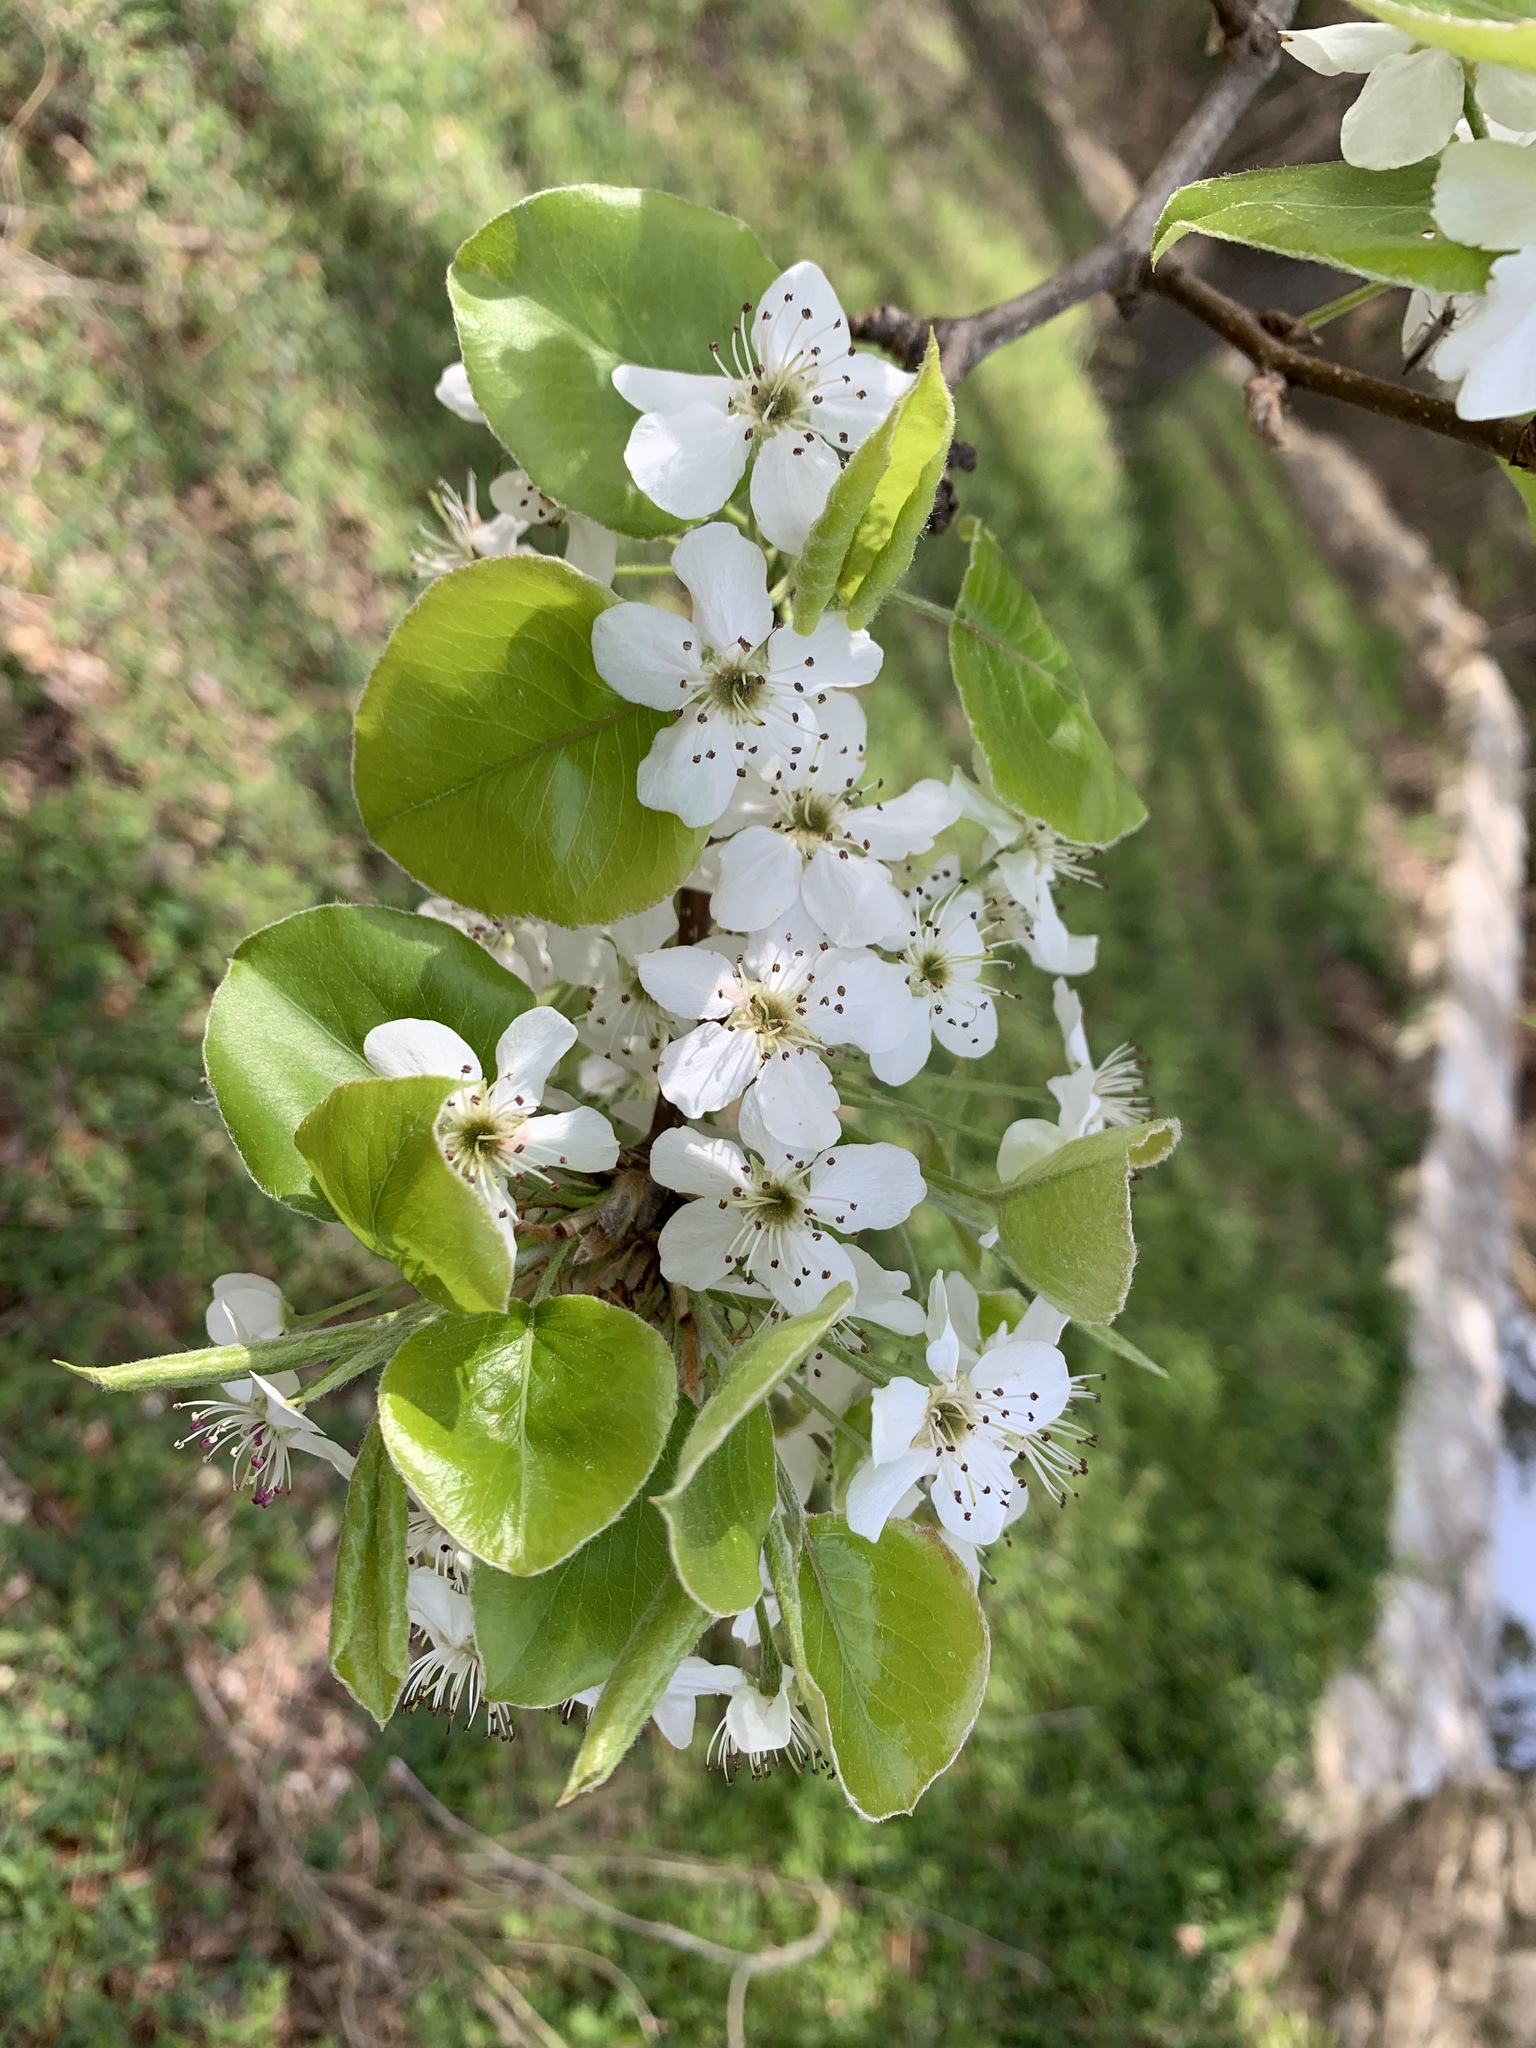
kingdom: Plantae
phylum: Tracheophyta
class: Magnoliopsida
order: Rosales
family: Rosaceae
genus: Pyrus
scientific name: Pyrus calleryana
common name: Callery pear
